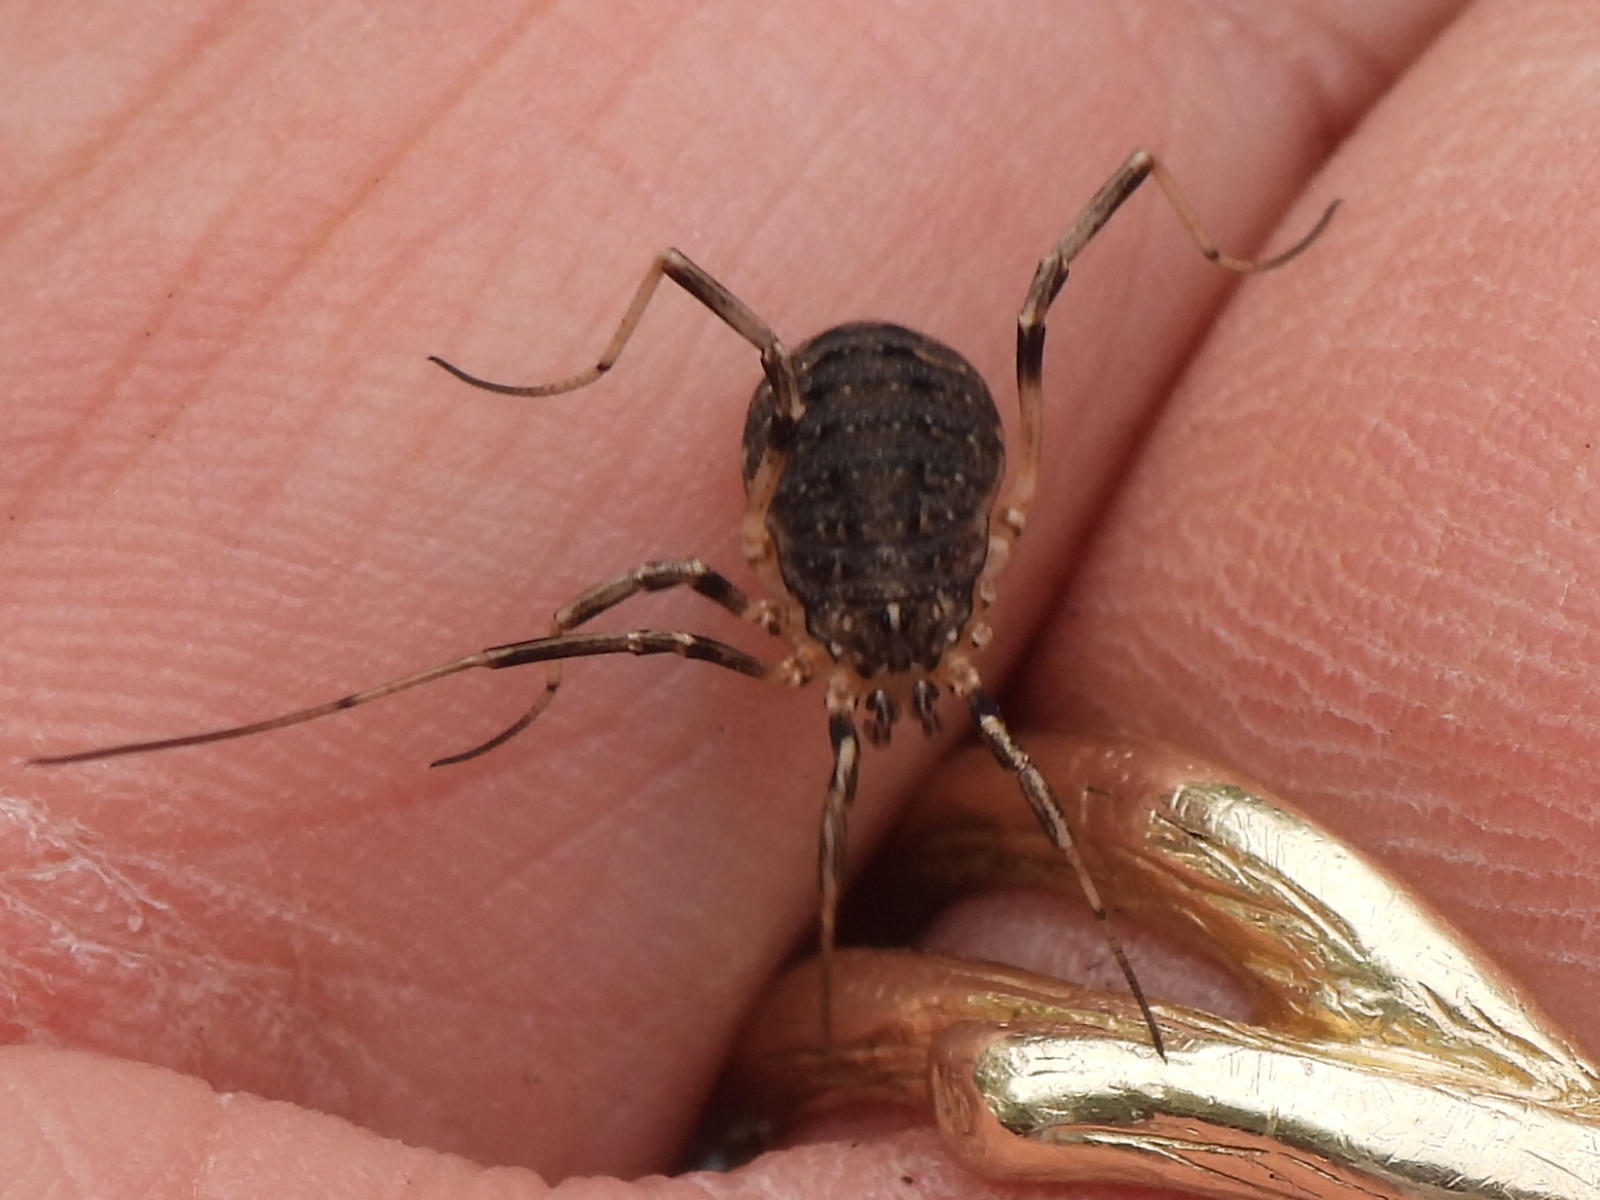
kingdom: Animalia
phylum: Arthropoda
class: Arachnida
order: Opiliones
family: Sclerosomatidae
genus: Eumesosoma
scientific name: Eumesosoma roeweri
